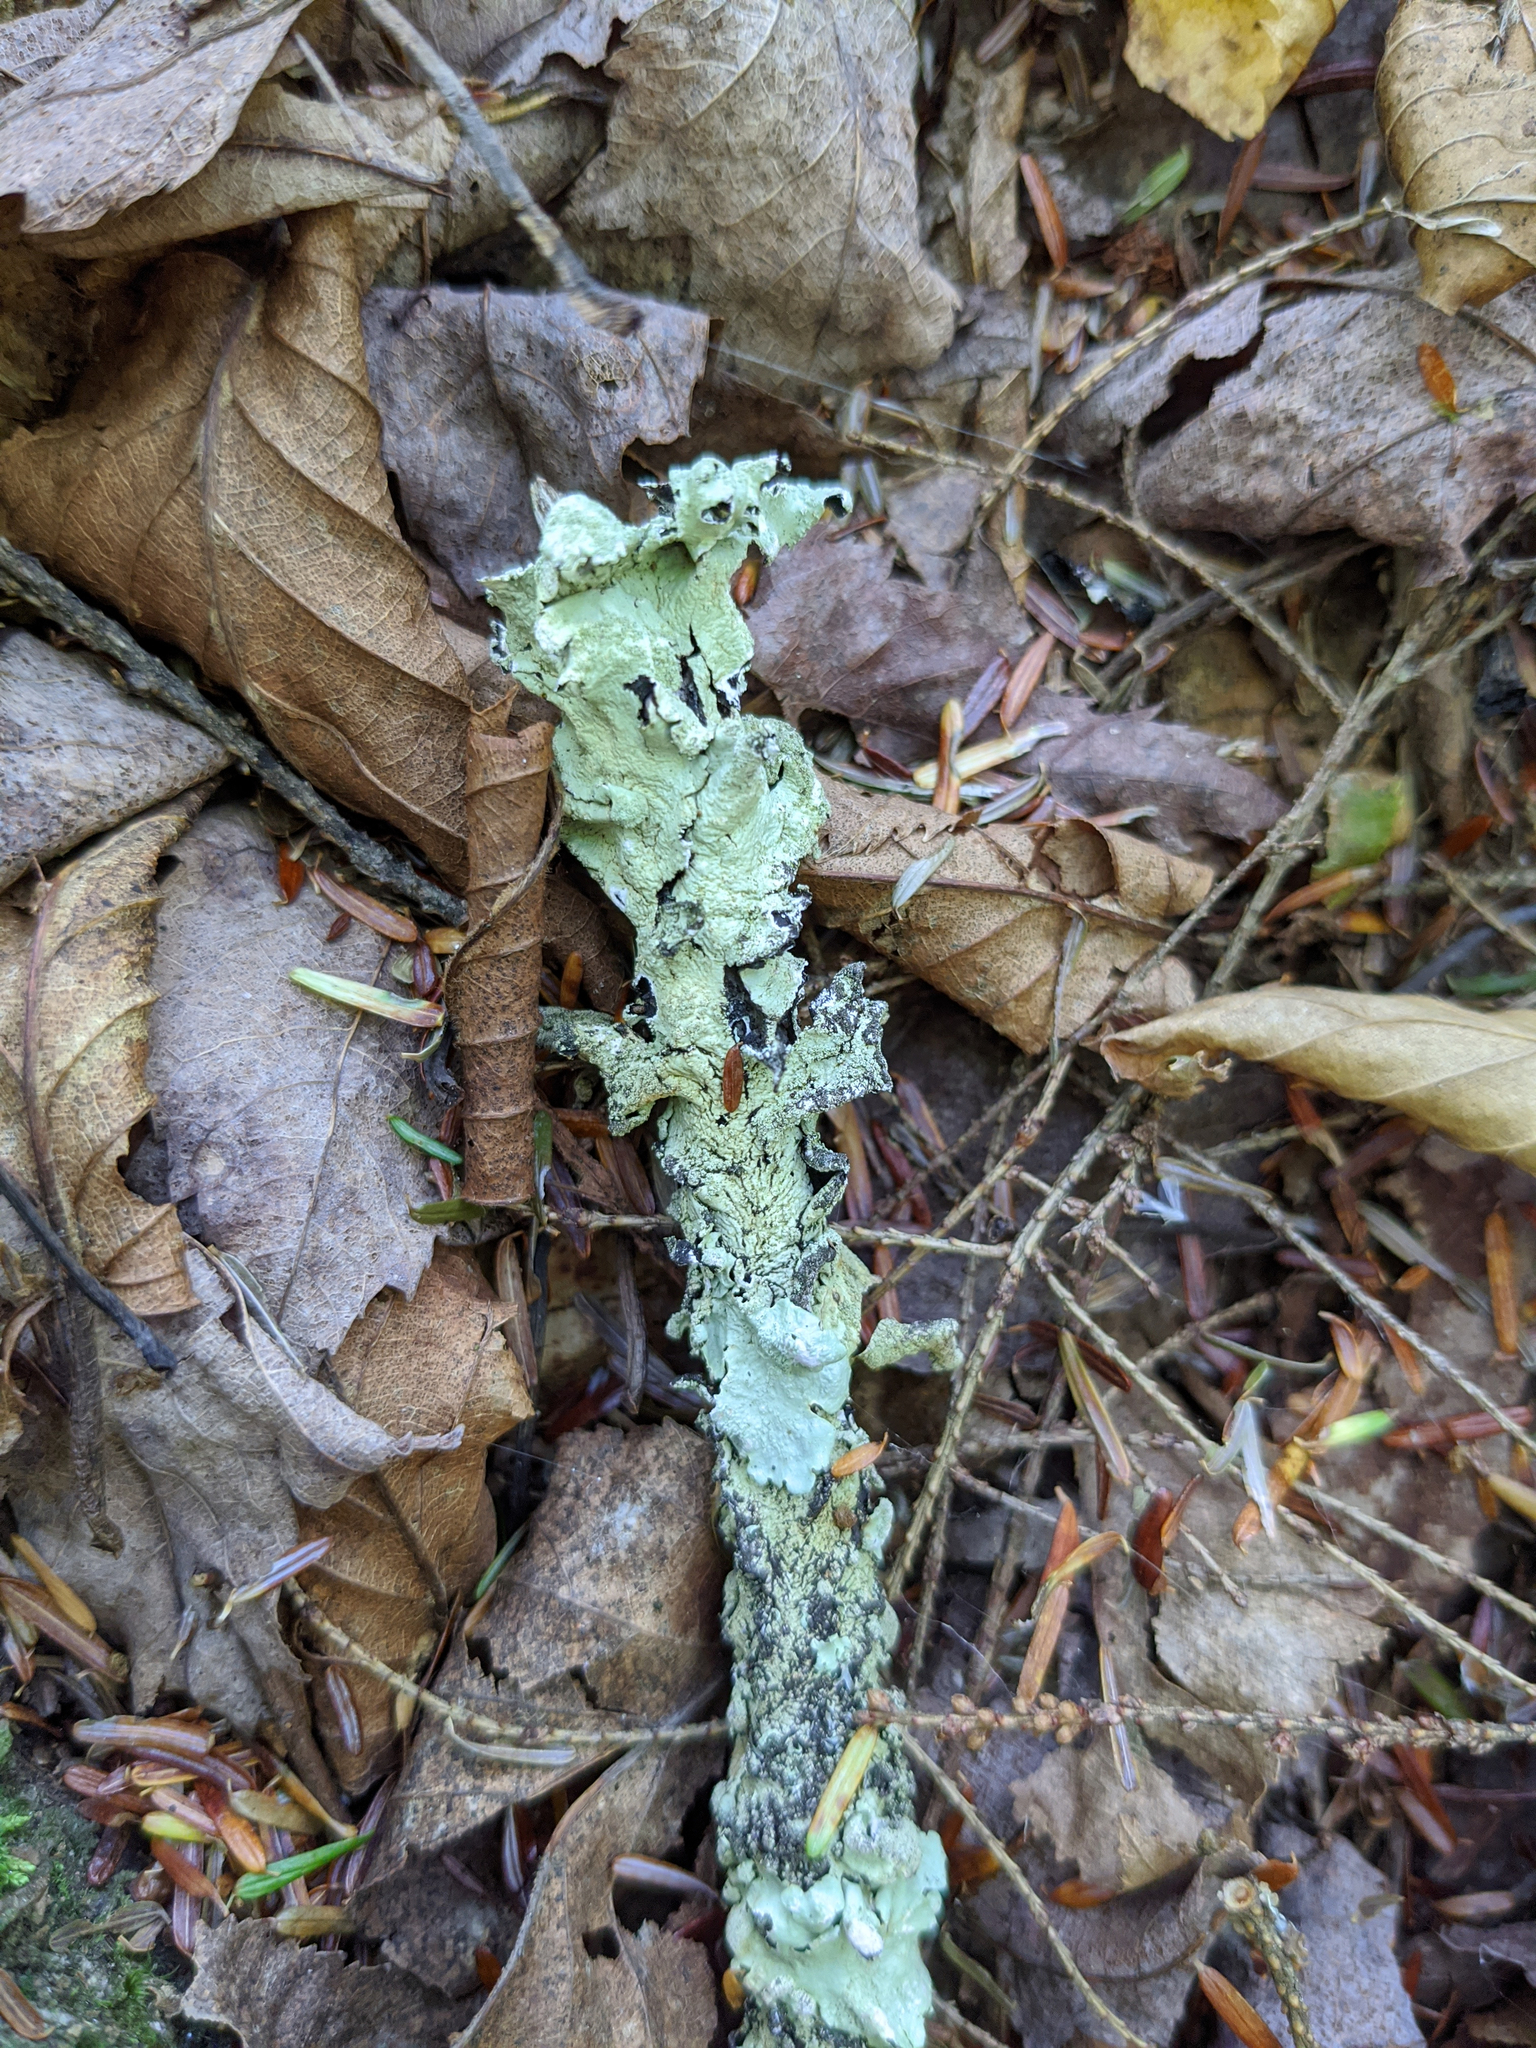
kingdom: Fungi
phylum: Ascomycota
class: Lecanoromycetes
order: Lecanorales
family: Parmeliaceae
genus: Flavoparmelia
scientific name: Flavoparmelia caperata
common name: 40-mile per hour lichen
